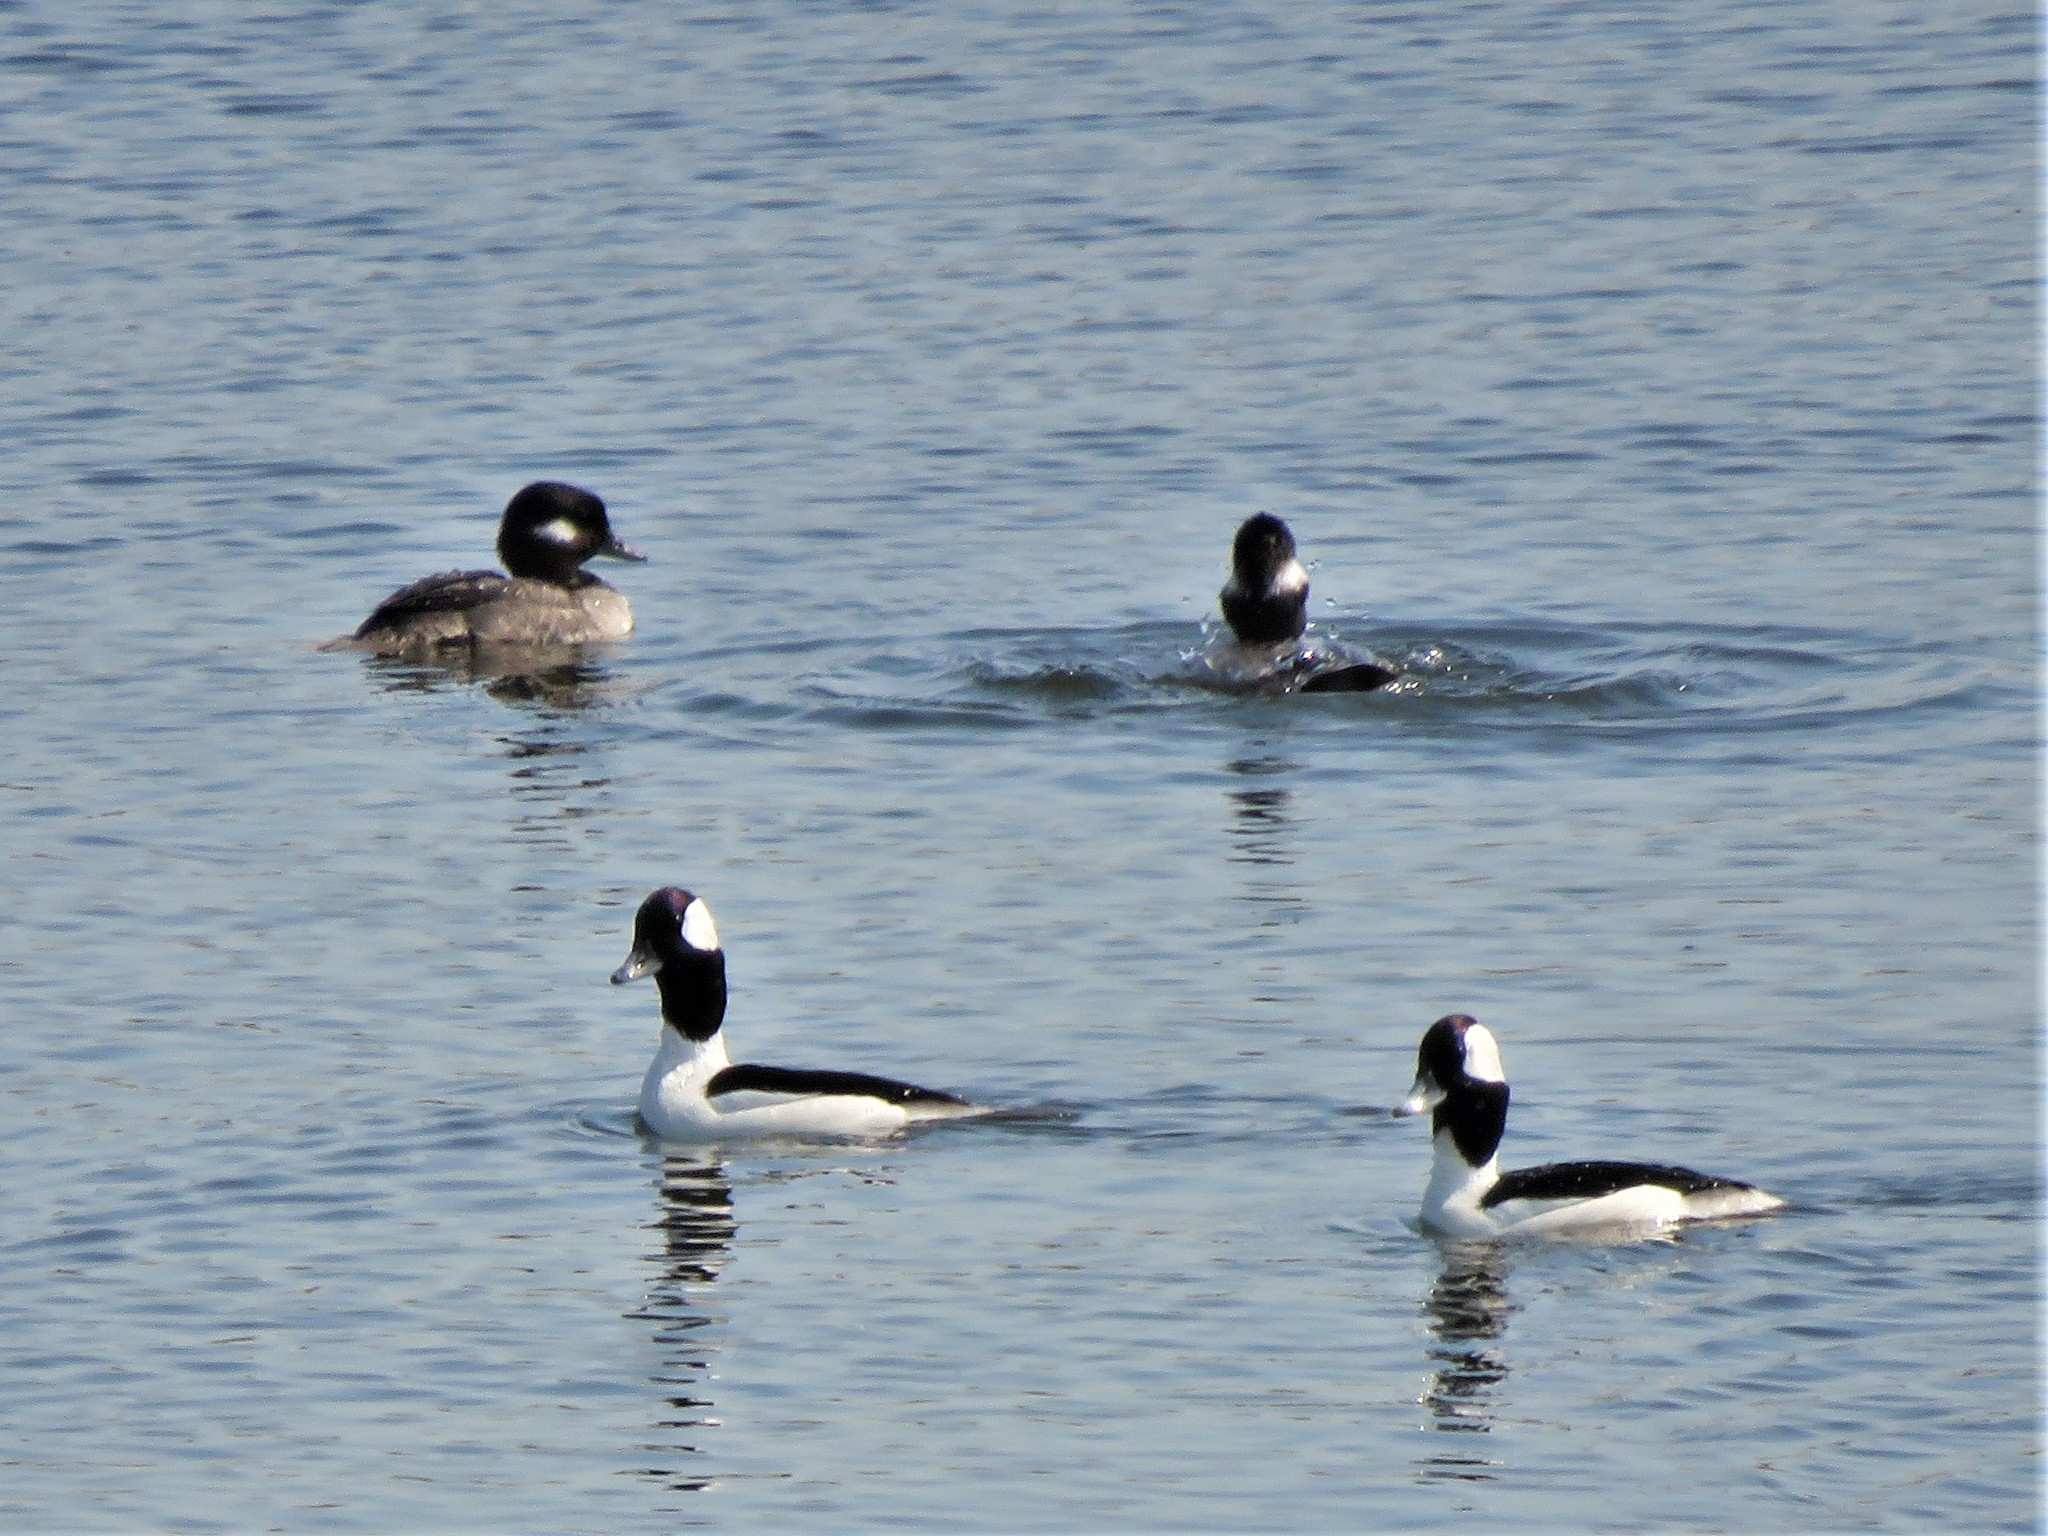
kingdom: Animalia
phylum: Chordata
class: Aves
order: Anseriformes
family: Anatidae
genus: Bucephala
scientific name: Bucephala albeola
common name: Bufflehead
